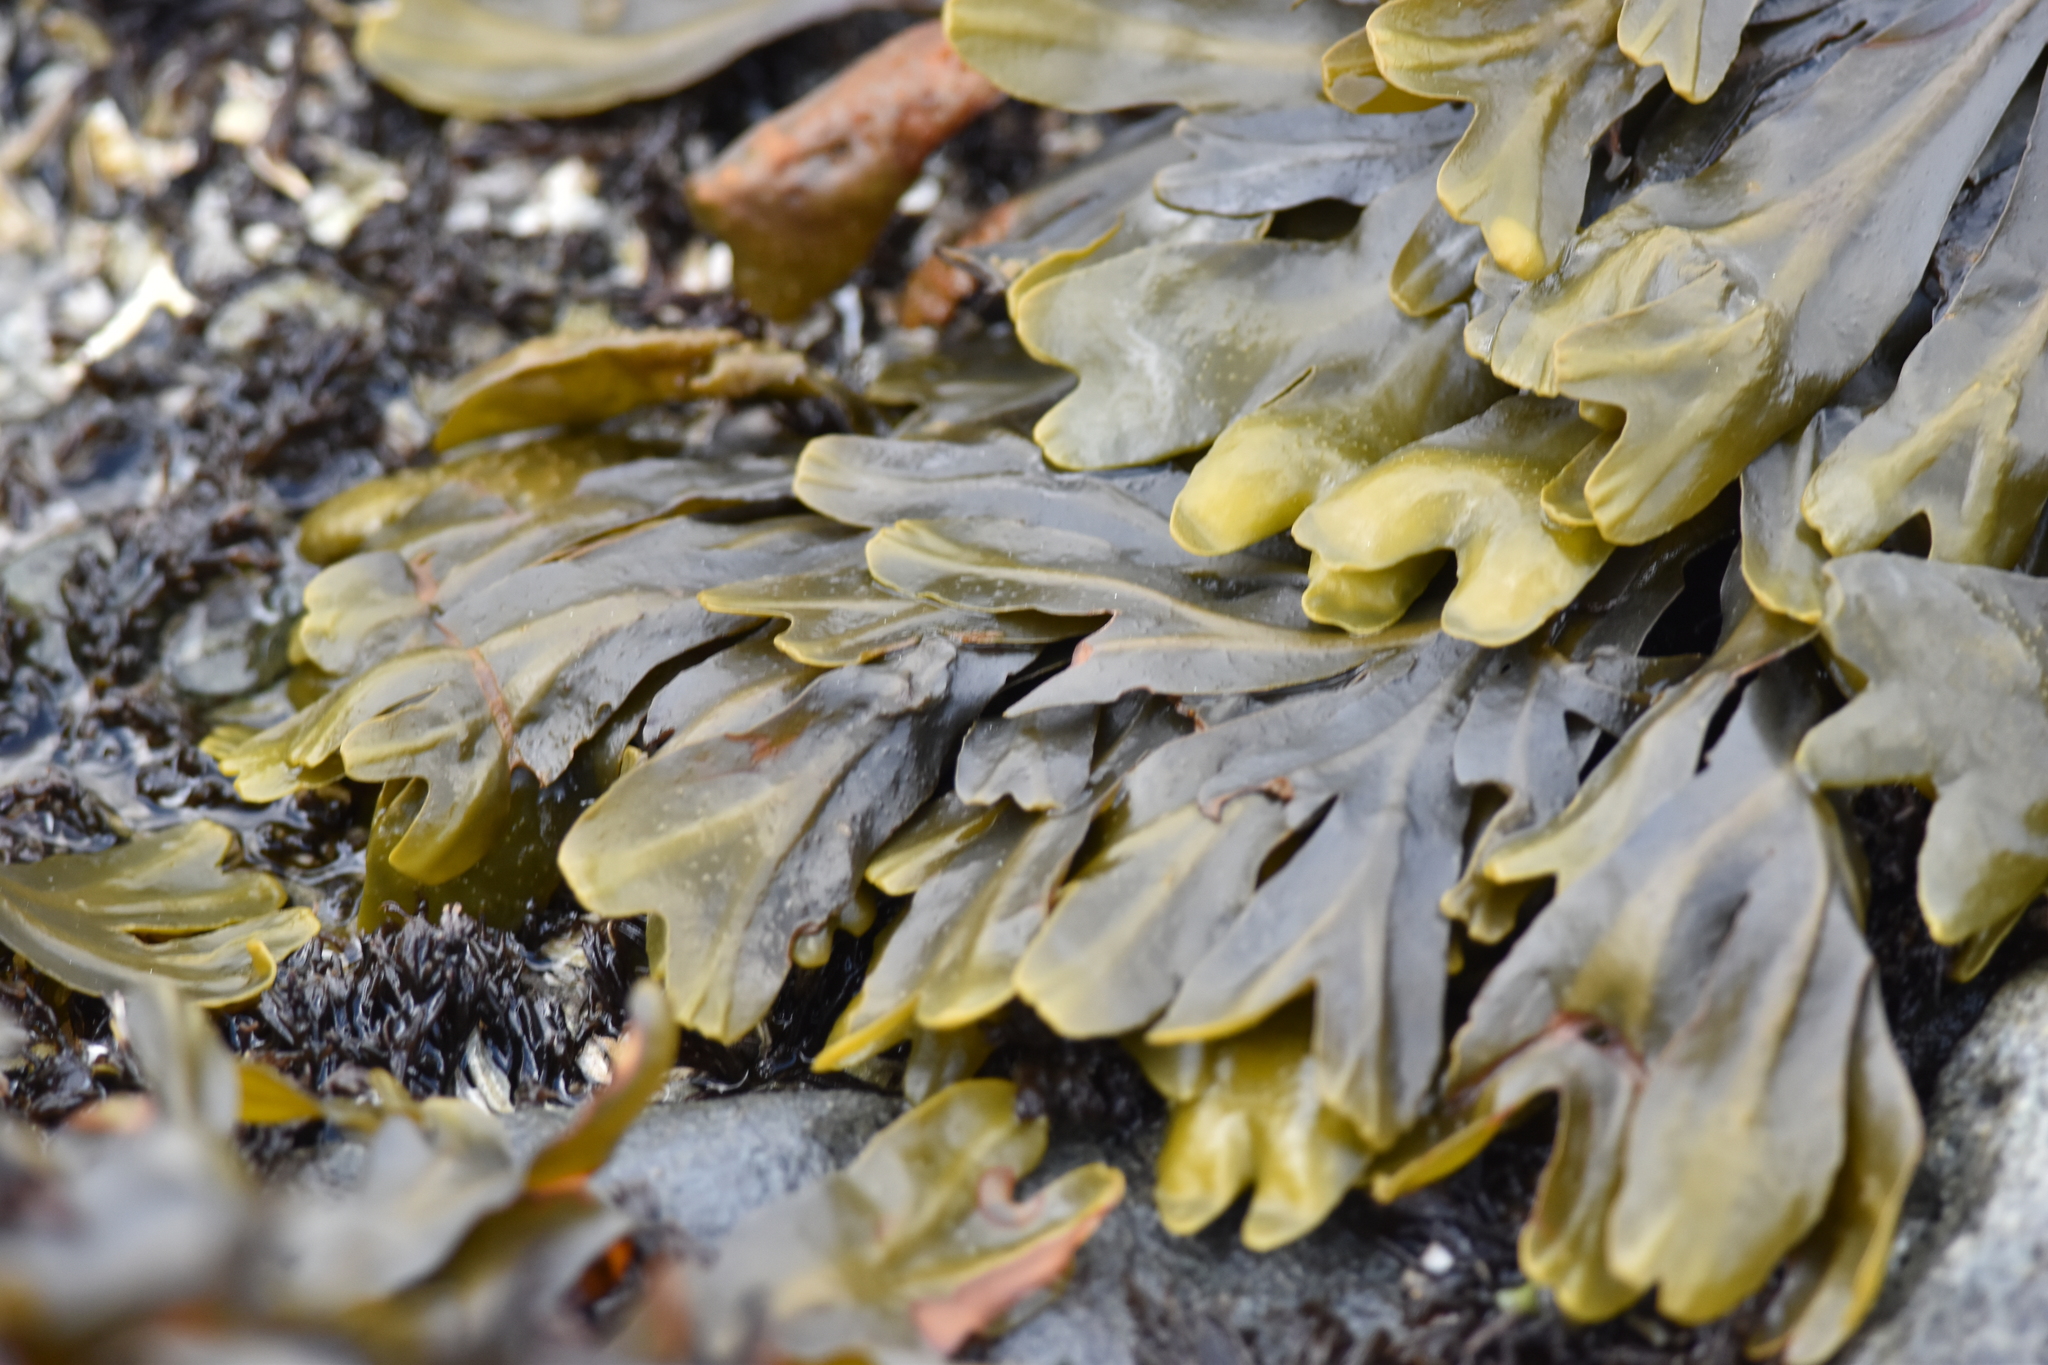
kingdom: Chromista
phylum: Ochrophyta
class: Phaeophyceae
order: Fucales
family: Fucaceae
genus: Fucus
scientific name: Fucus distichus
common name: Rockweed
